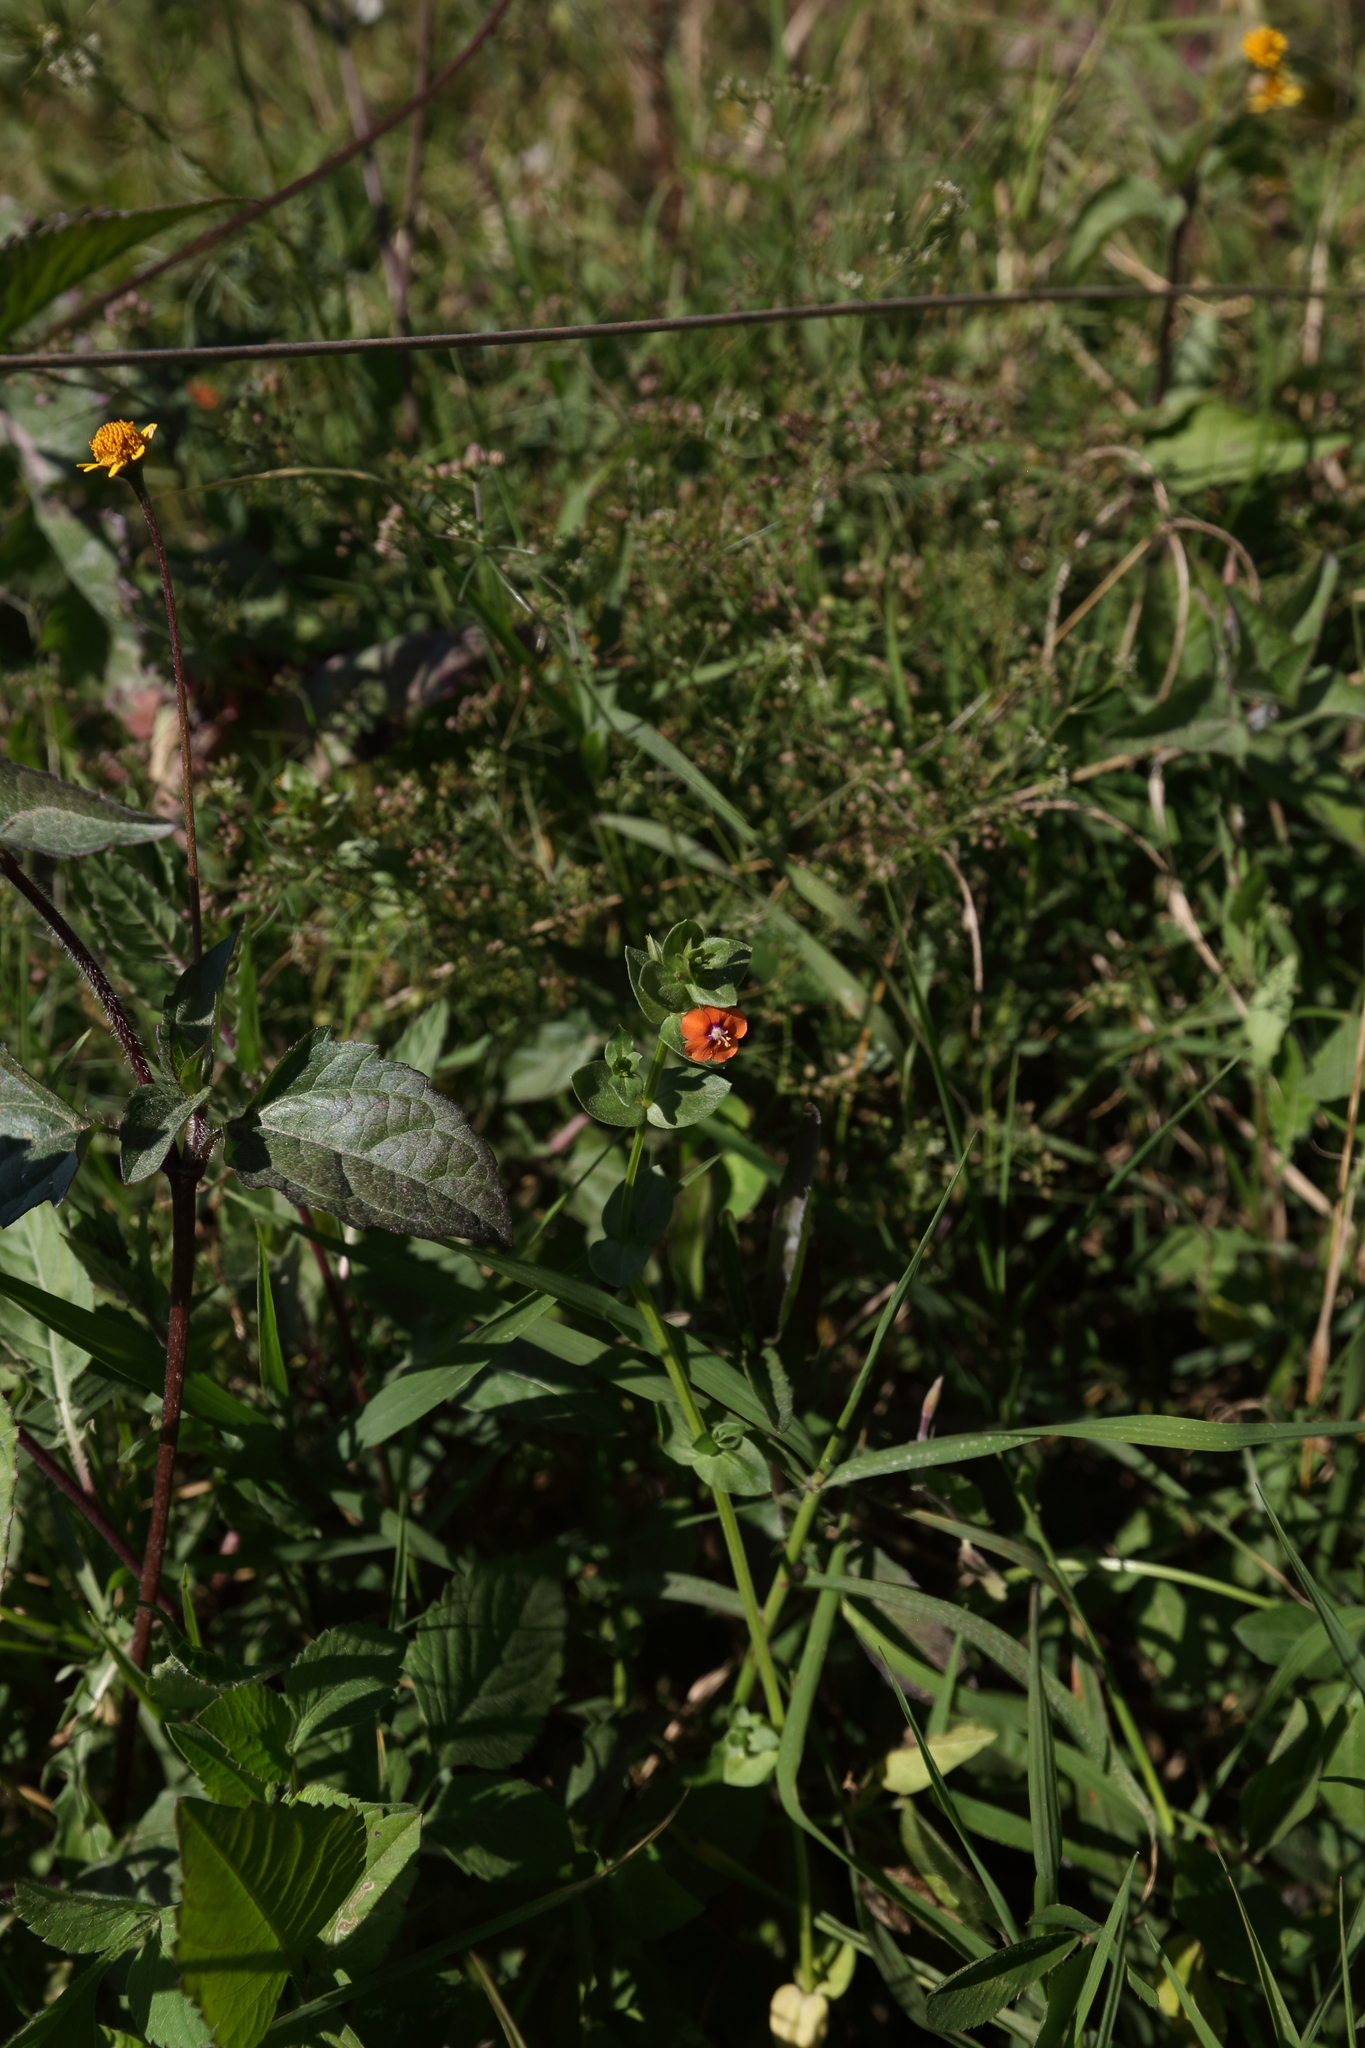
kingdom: Plantae
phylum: Tracheophyta
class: Magnoliopsida
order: Ericales
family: Primulaceae
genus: Lysimachia
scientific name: Lysimachia arvensis
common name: Scarlet pimpernel
